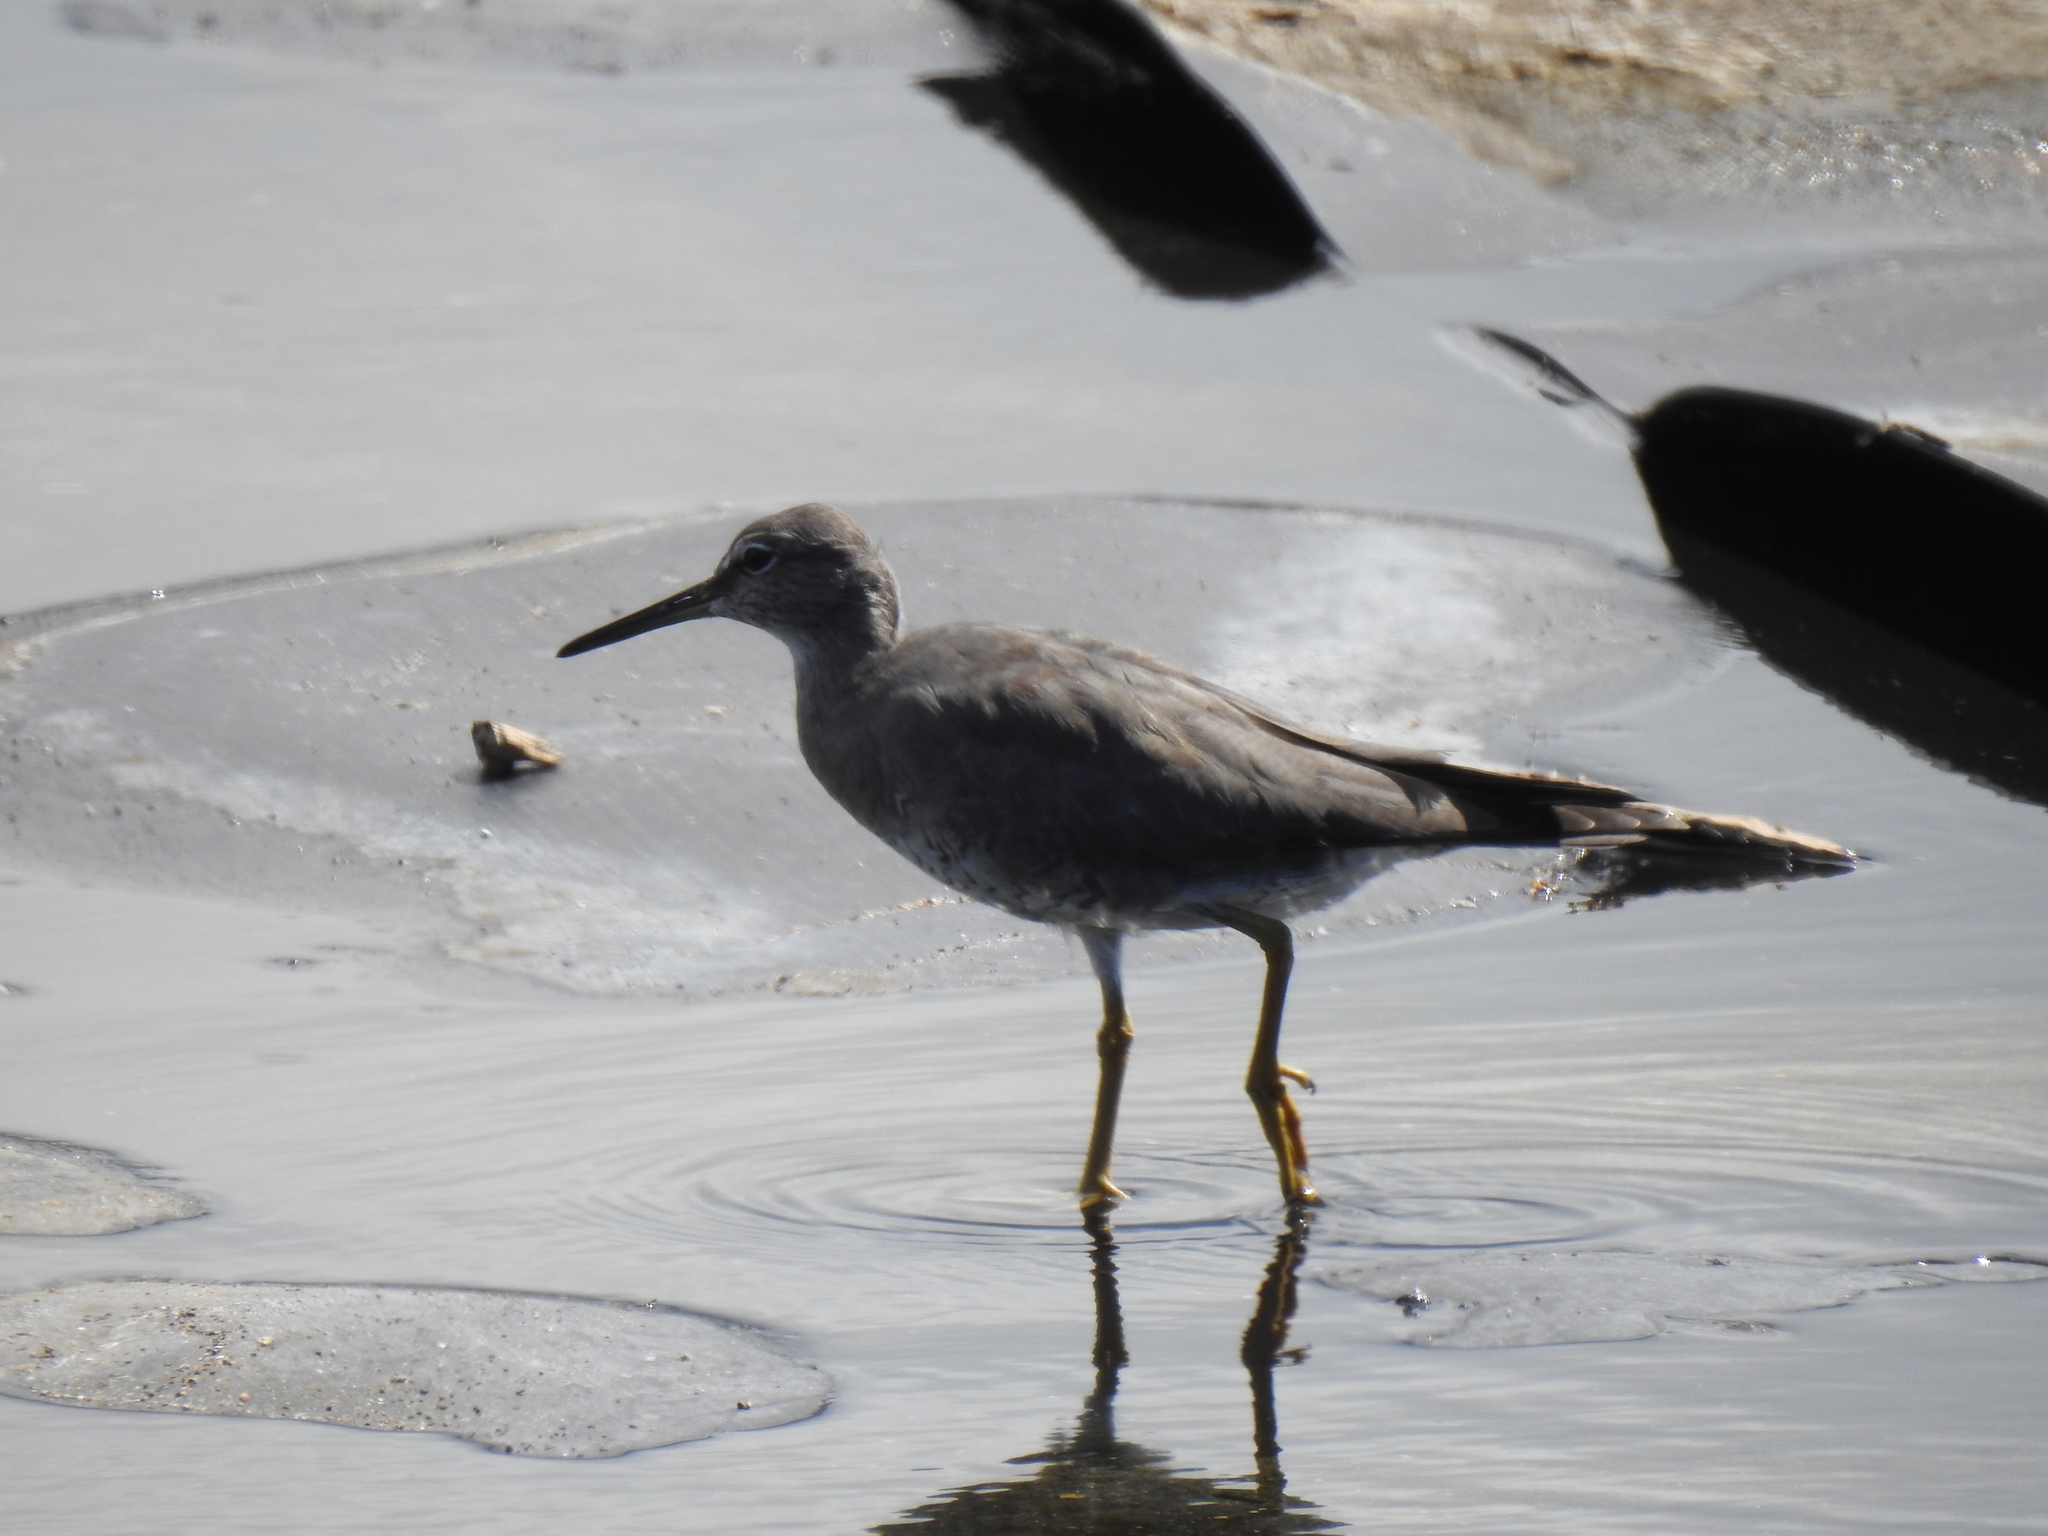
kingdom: Animalia
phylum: Chordata
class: Aves
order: Charadriiformes
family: Scolopacidae
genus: Tringa
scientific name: Tringa incana
